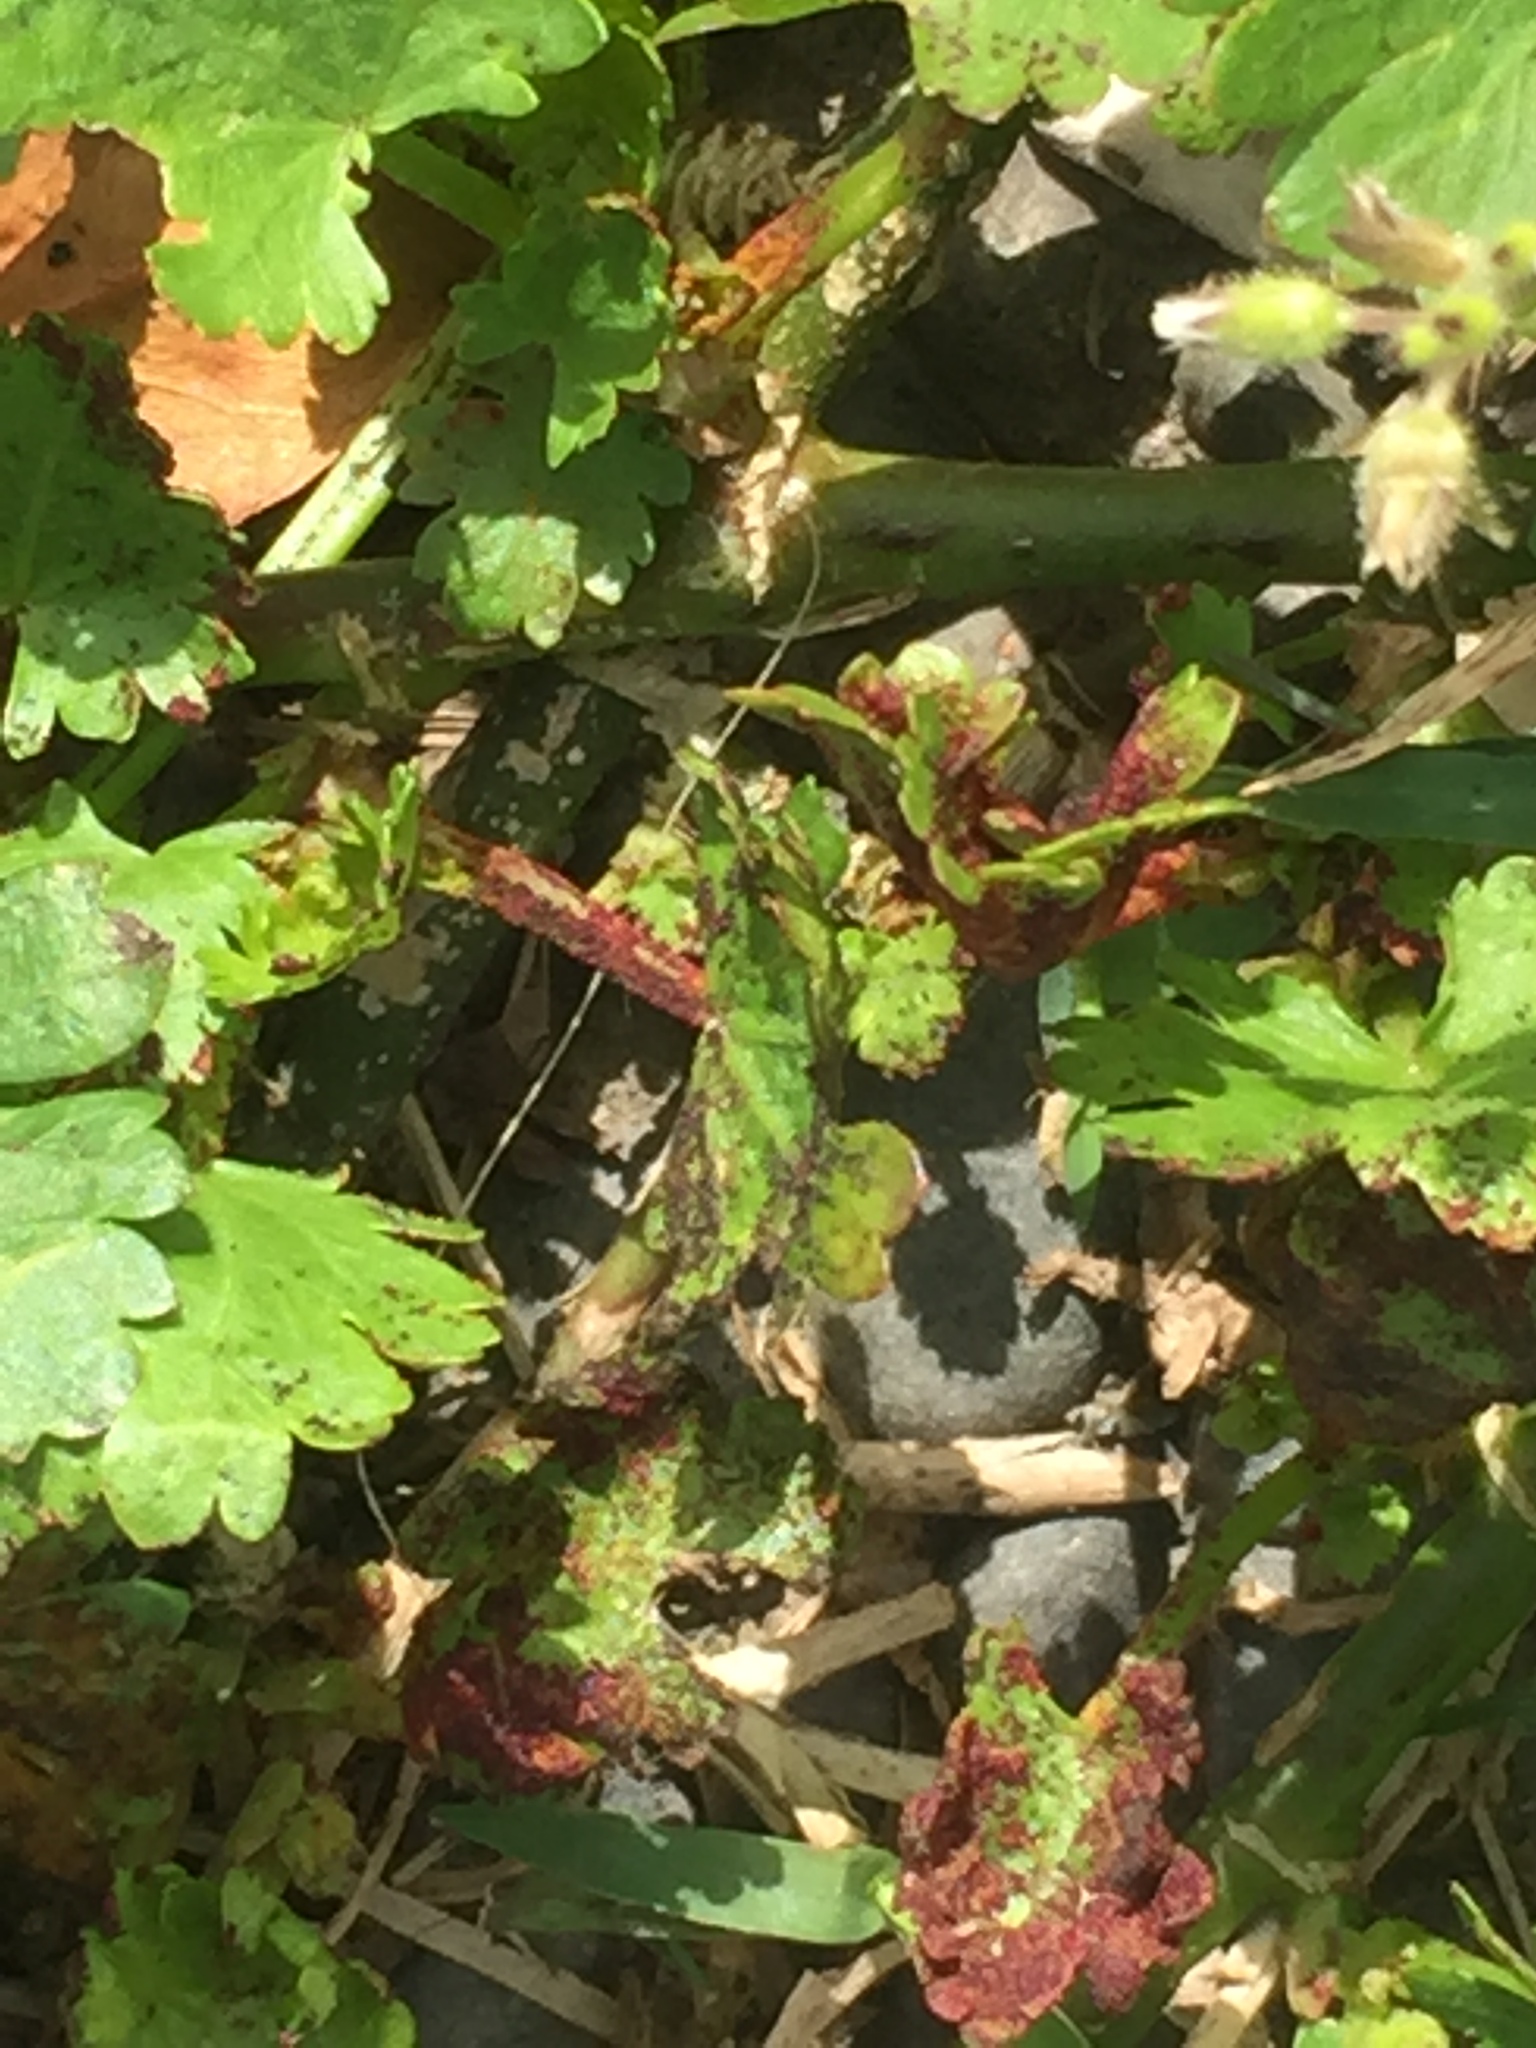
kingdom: Fungi
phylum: Chytridiomycota
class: Chytridiomycetes
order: Chytridiales
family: Synchytriaceae
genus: Synchytrium
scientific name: Synchytrium australe
